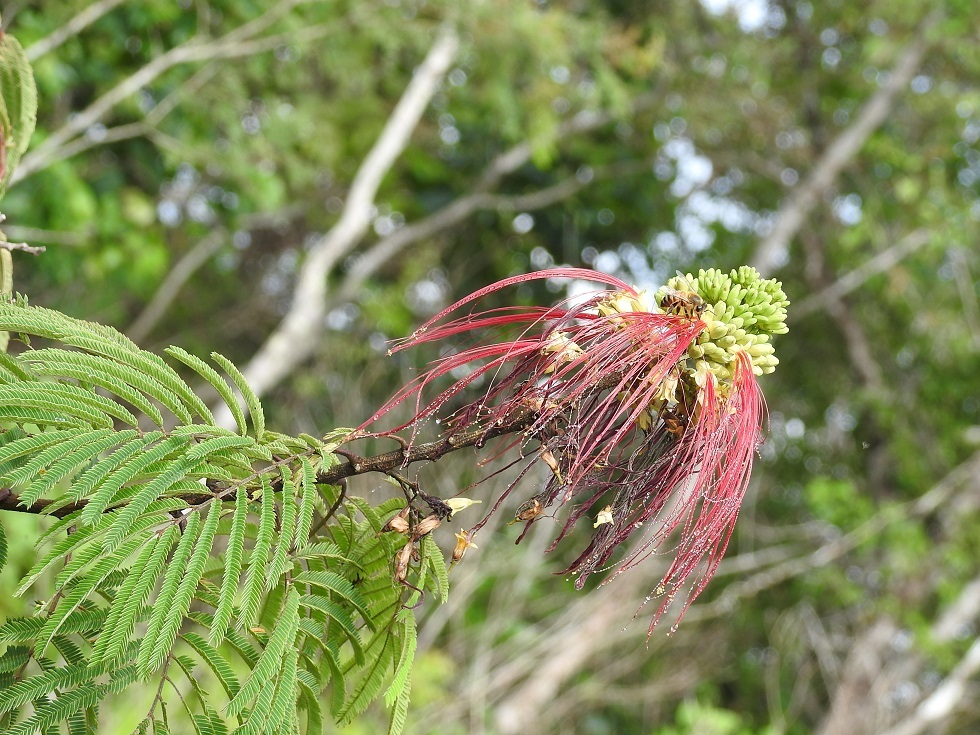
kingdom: Plantae
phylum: Tracheophyta
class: Magnoliopsida
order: Fabales
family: Fabaceae
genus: Calliandra
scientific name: Calliandra houstoniana
